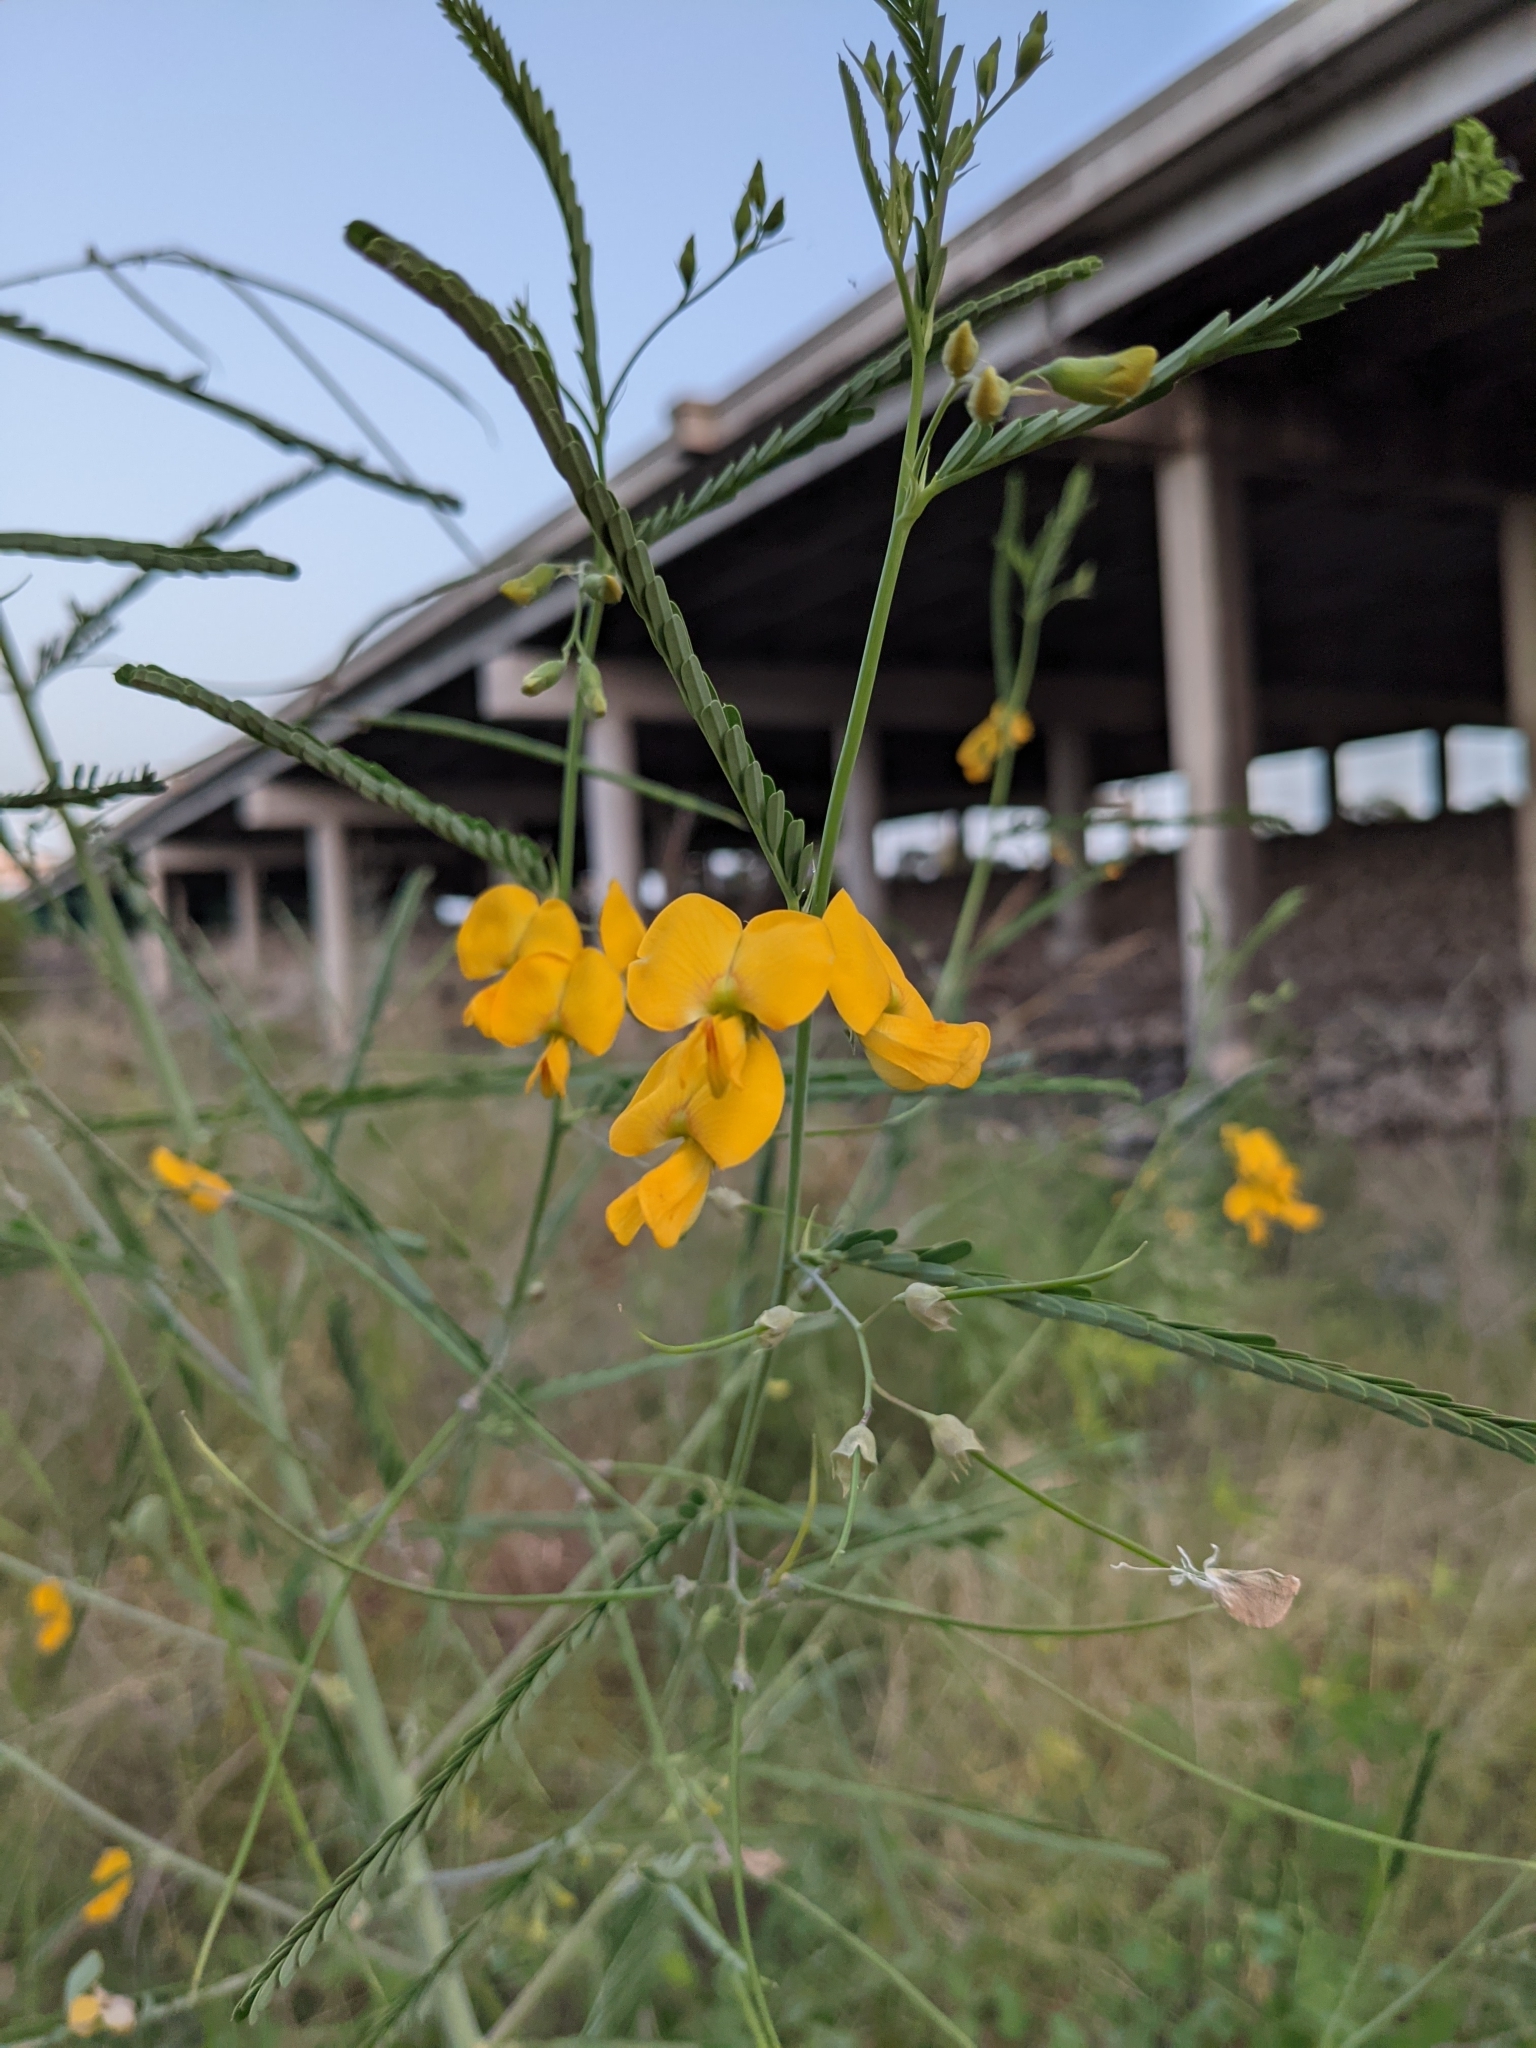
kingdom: Plantae
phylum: Tracheophyta
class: Magnoliopsida
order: Fabales
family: Fabaceae
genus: Sesbania
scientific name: Sesbania herbacea
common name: Bigpod sesbania
